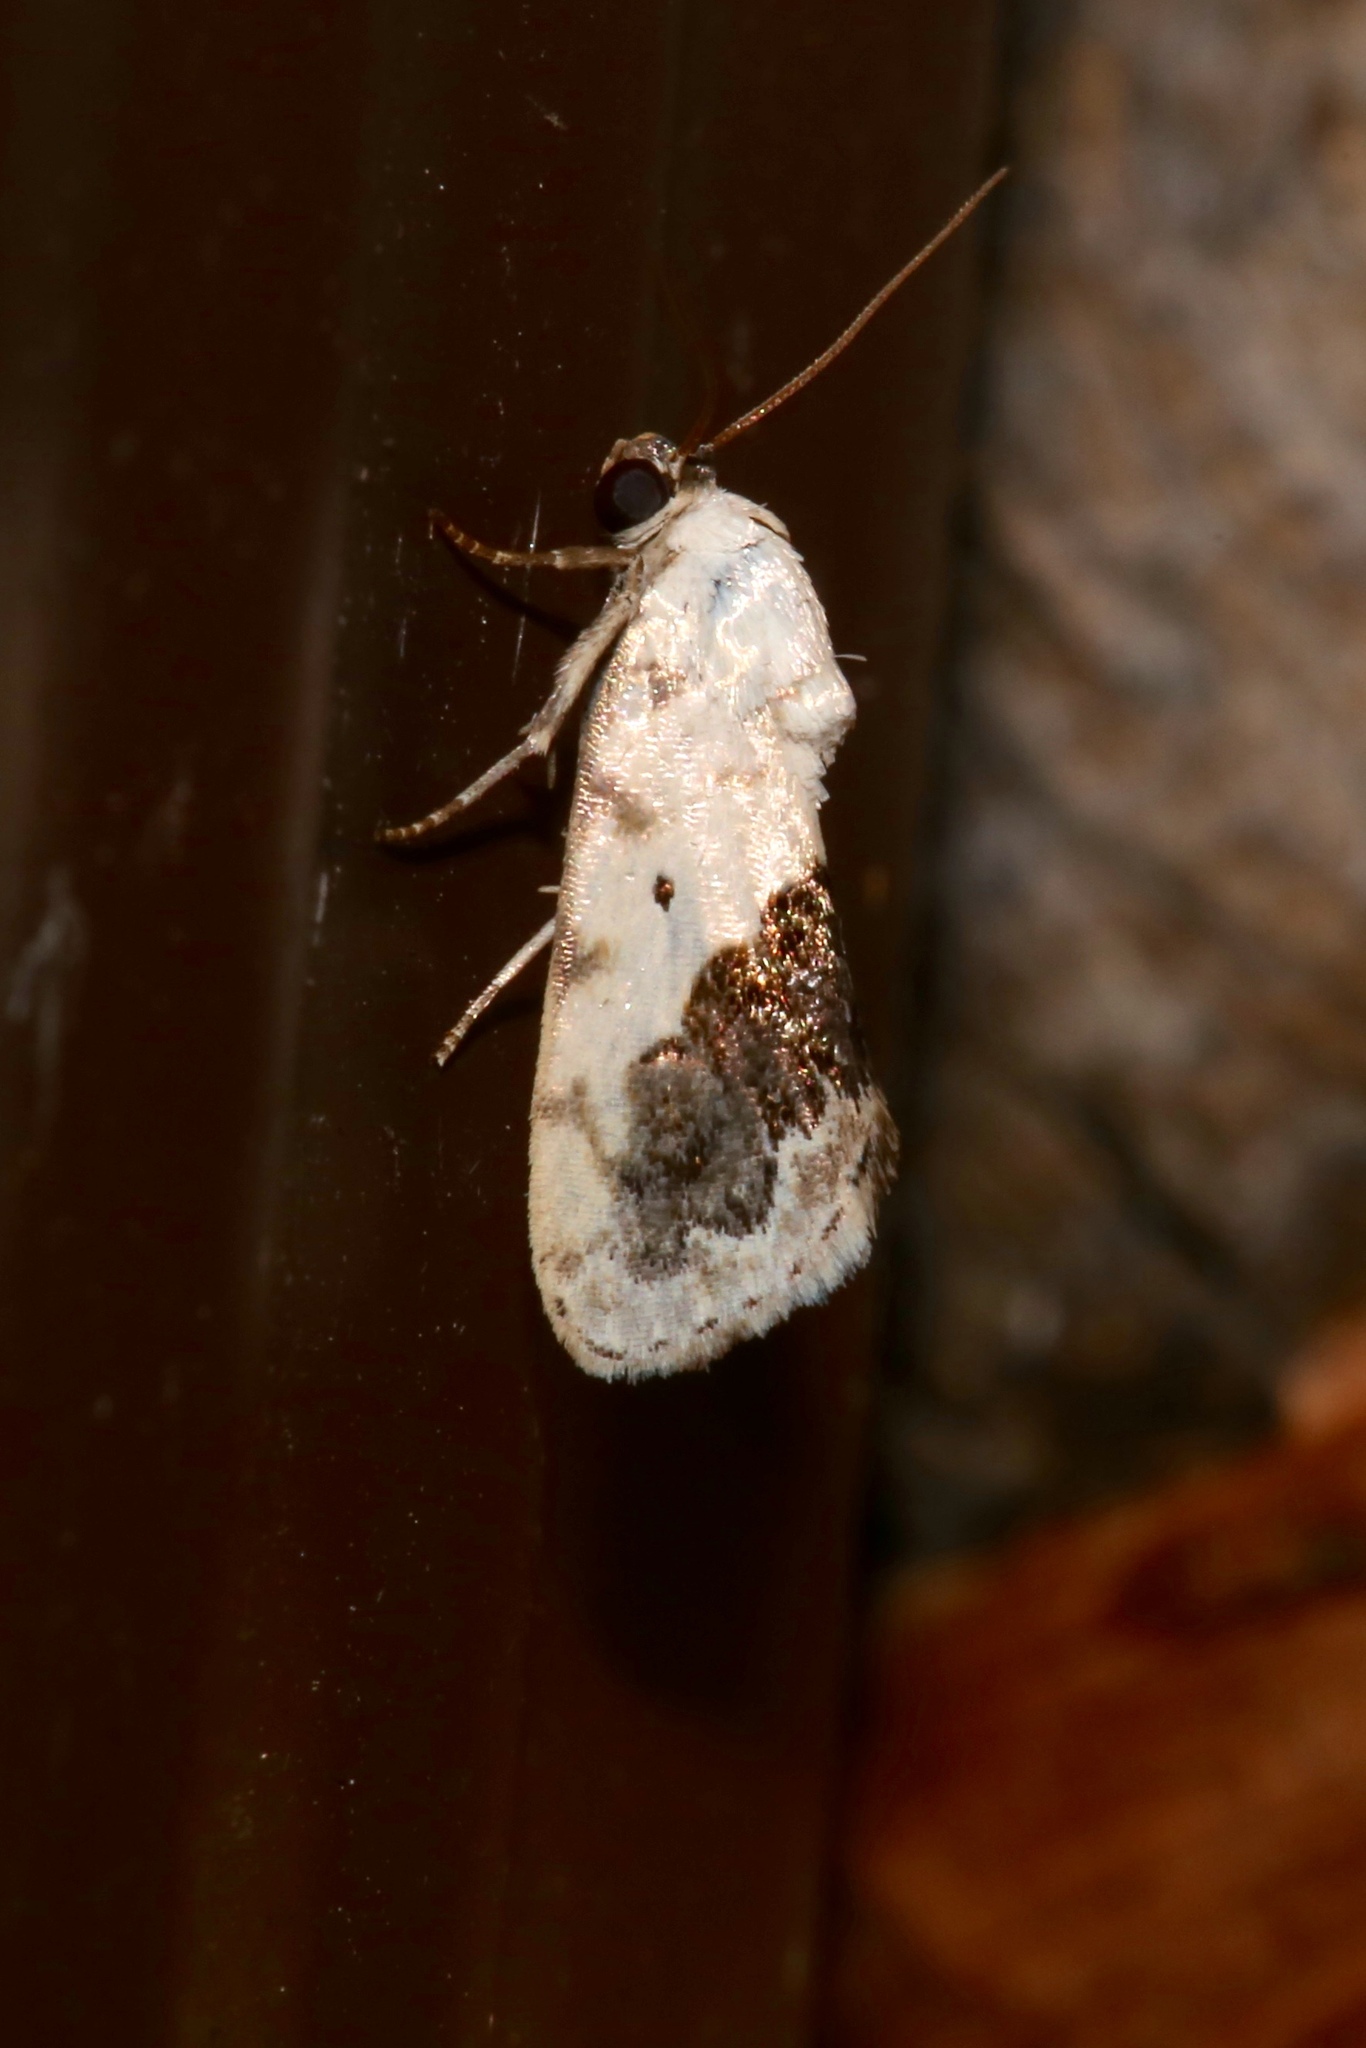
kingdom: Animalia
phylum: Arthropoda
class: Insecta
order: Lepidoptera
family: Noctuidae
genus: Acontia
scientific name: Acontia erastrioides
